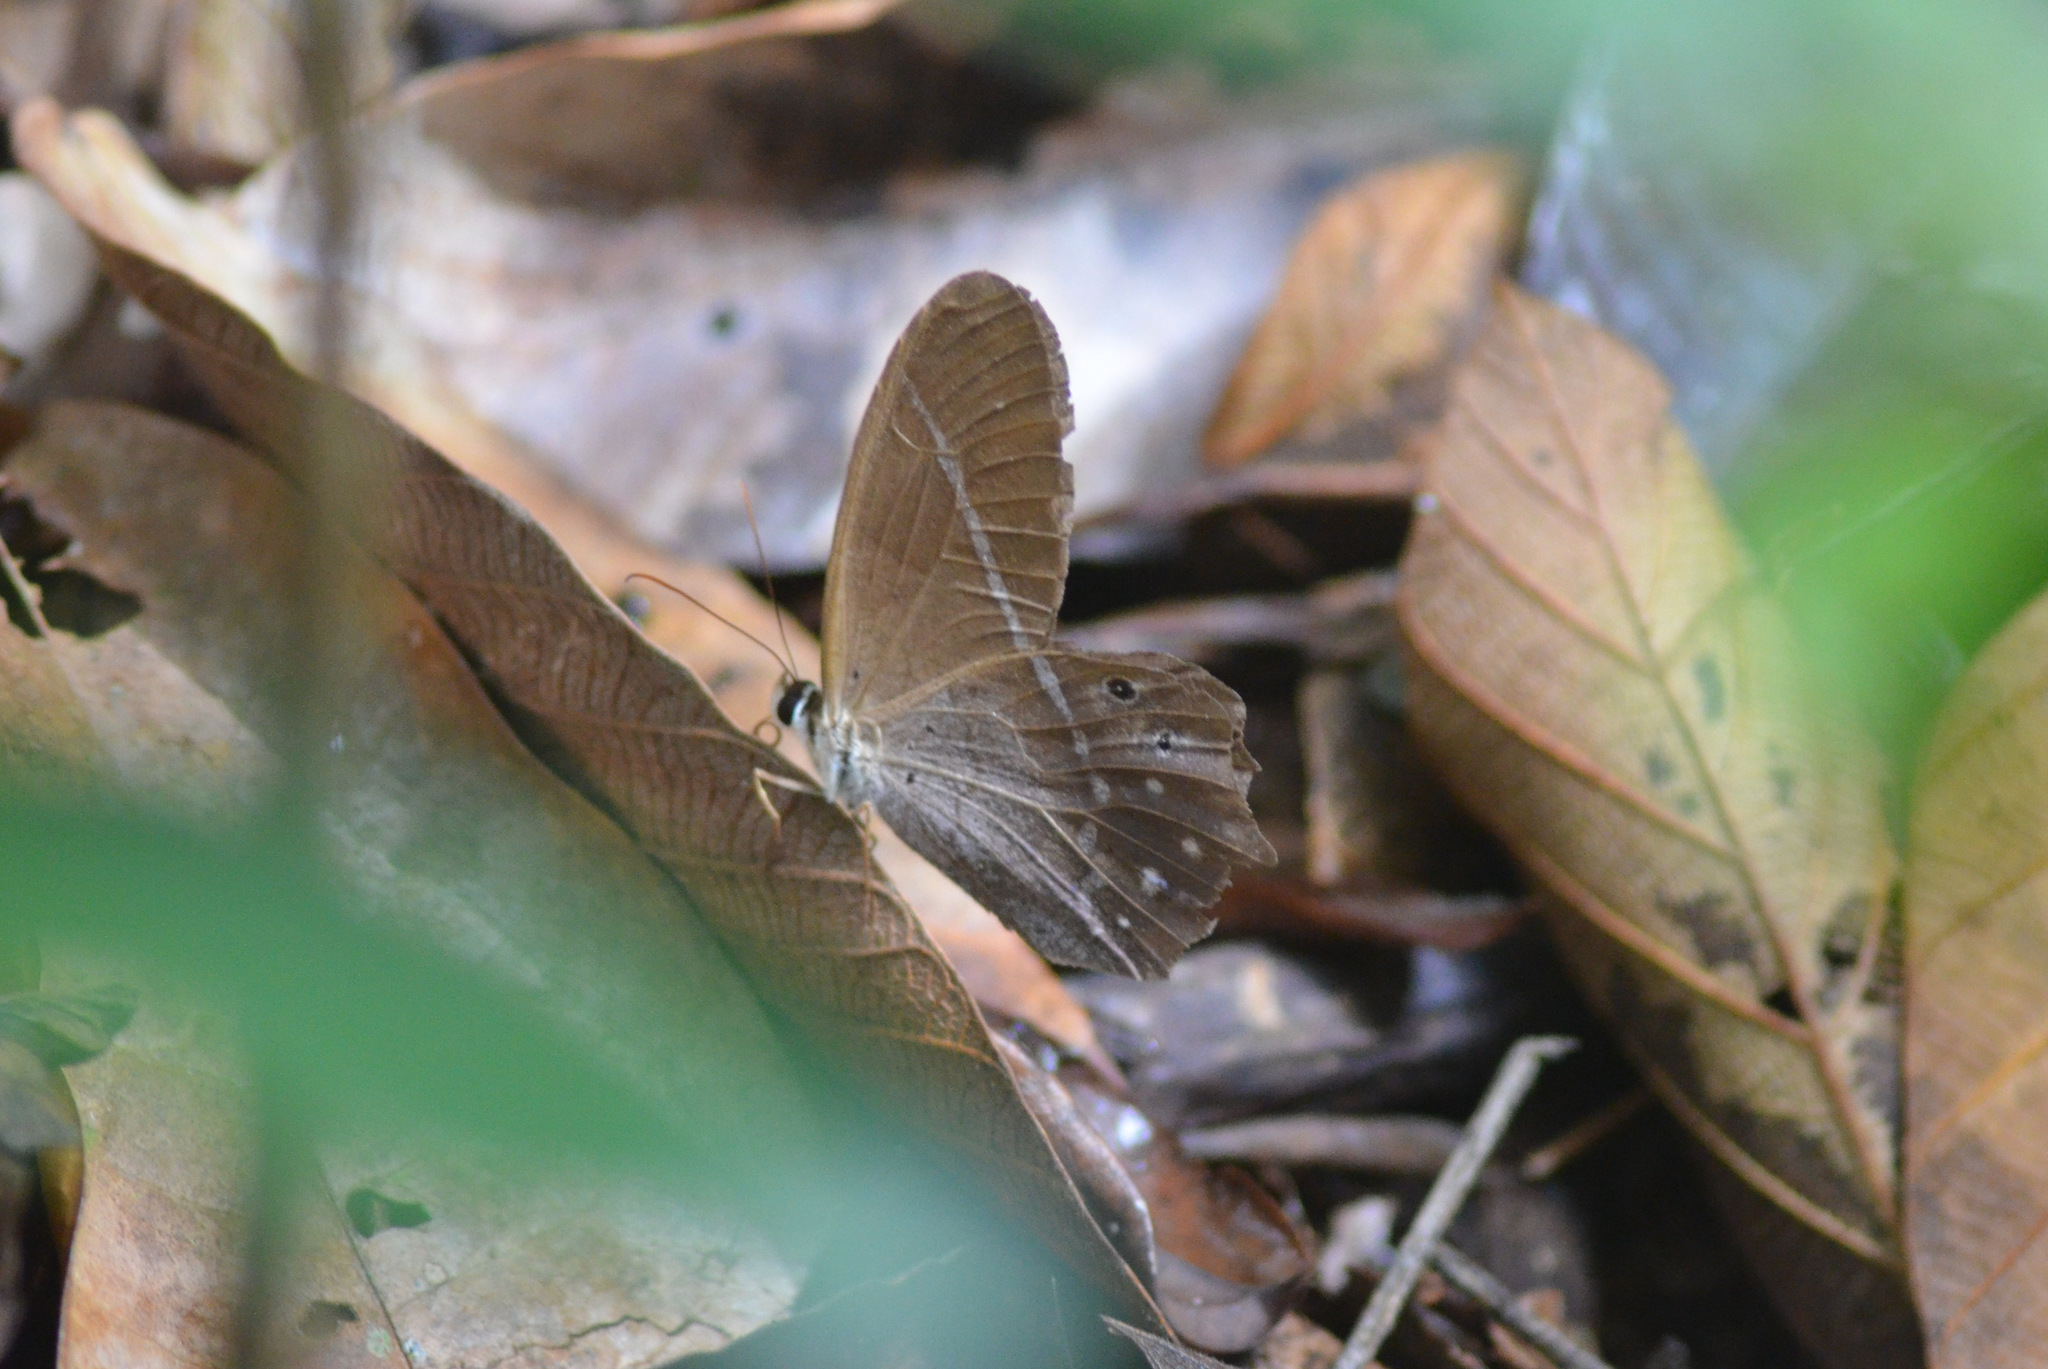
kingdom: Animalia
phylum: Arthropoda
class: Insecta
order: Lepidoptera
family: Nymphalidae
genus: Pierella
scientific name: Pierella lena
